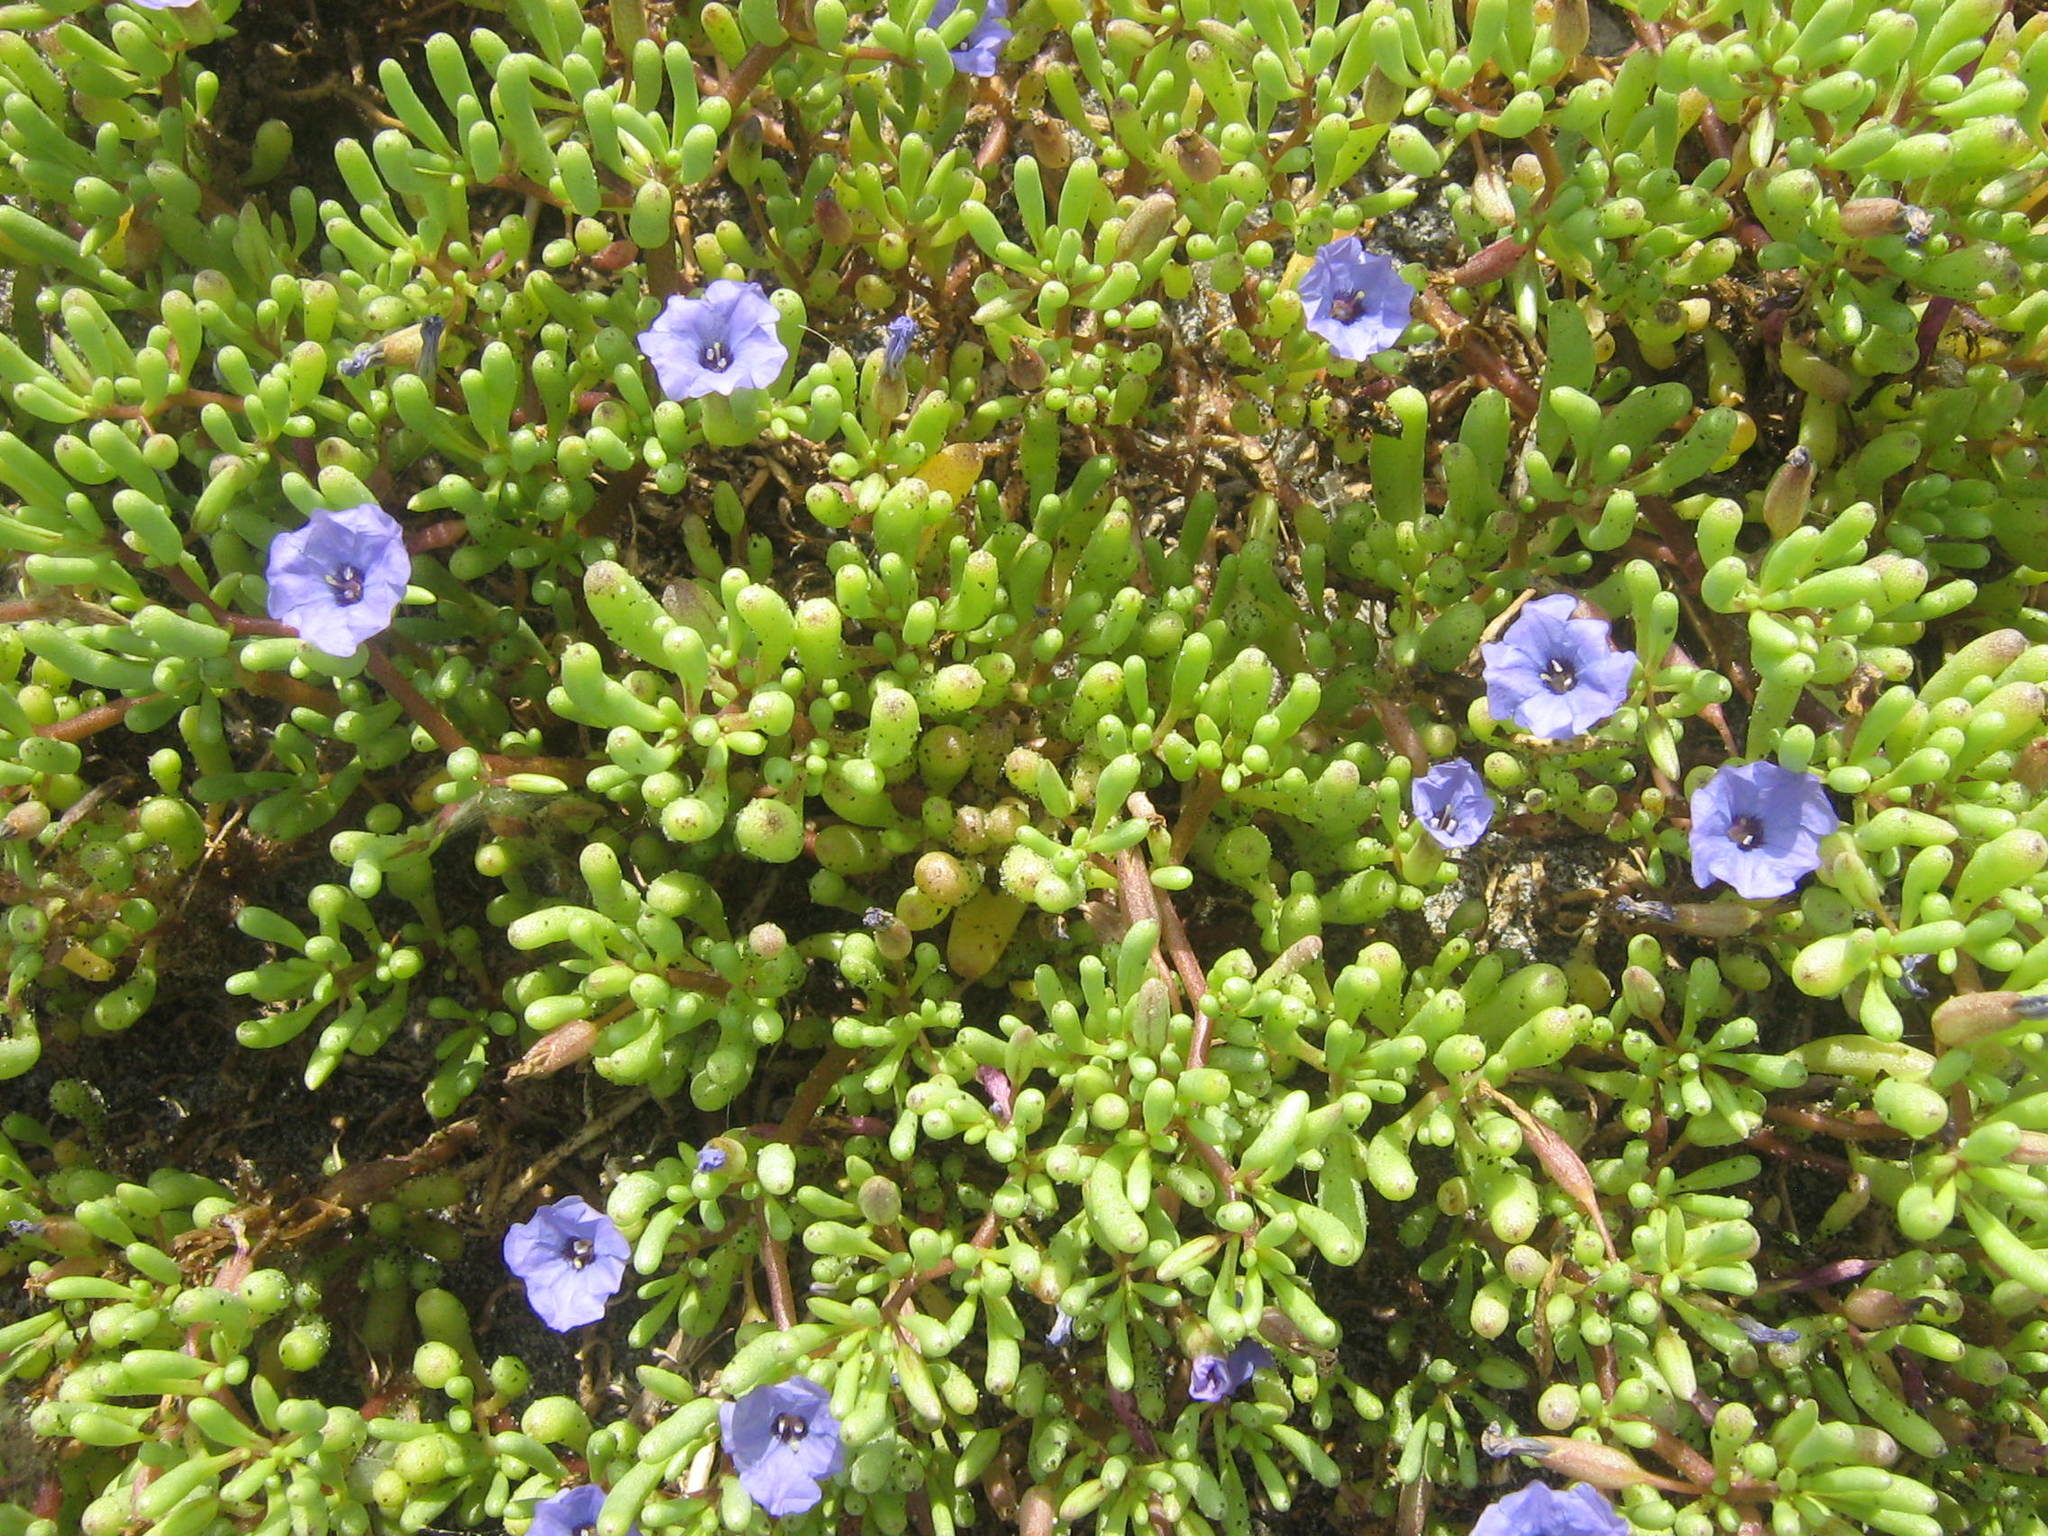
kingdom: Plantae
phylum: Tracheophyta
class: Magnoliopsida
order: Solanales
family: Solanaceae
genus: Nolana
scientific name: Nolana tarapacana
